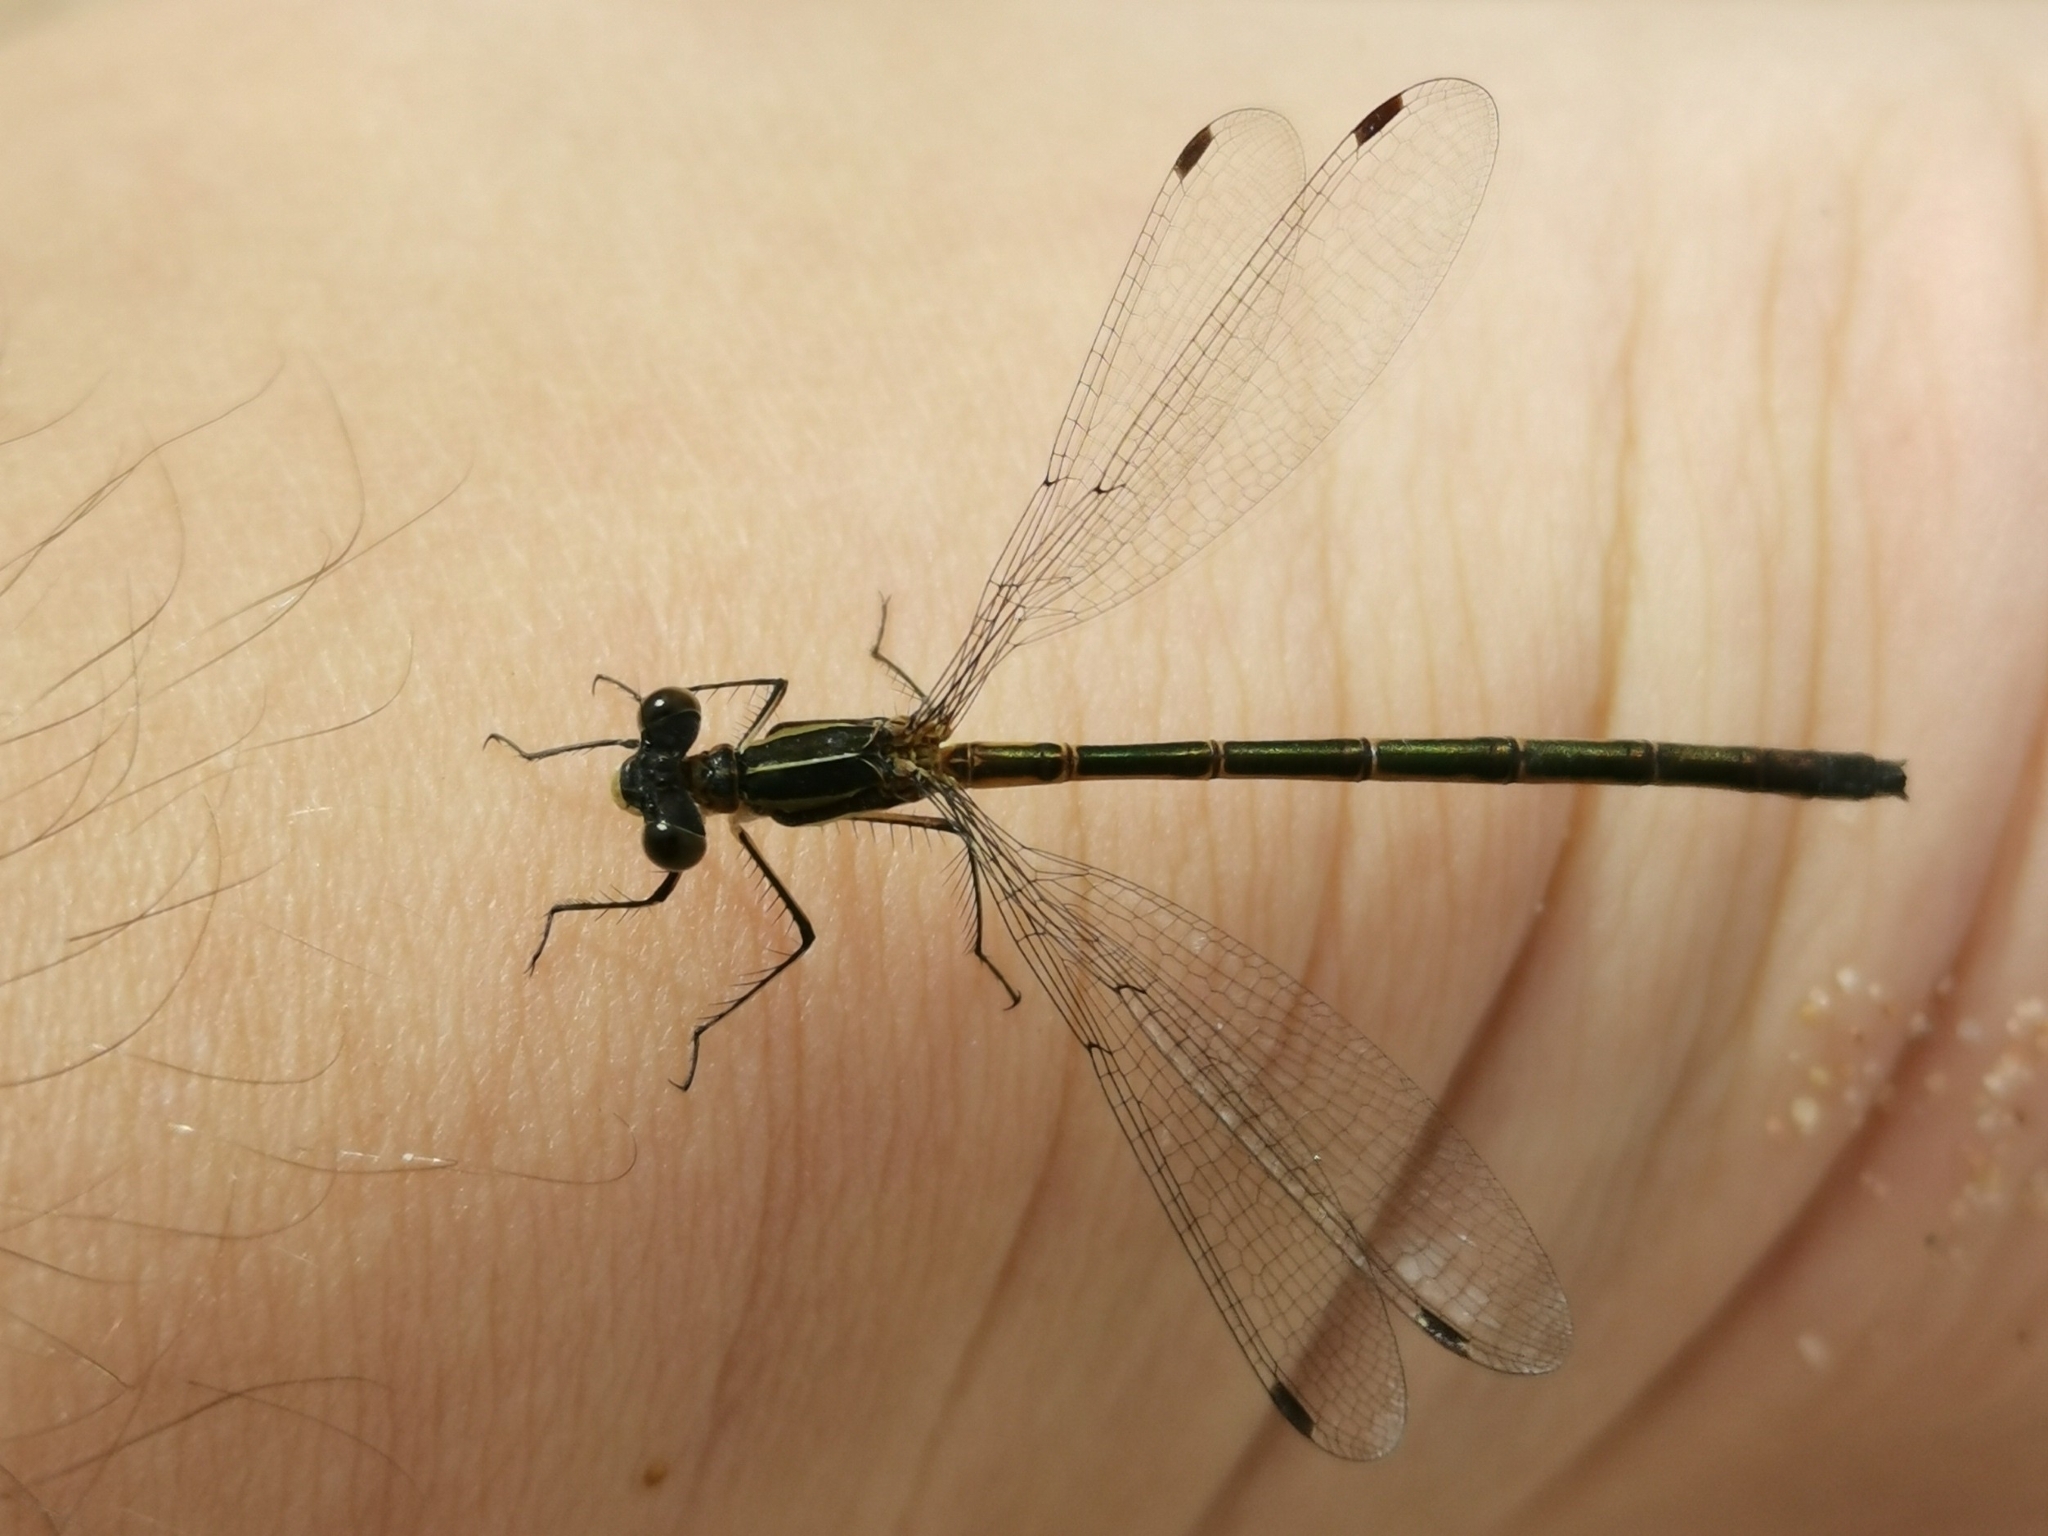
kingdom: Animalia
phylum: Arthropoda
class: Insecta
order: Odonata
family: Lestidae
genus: Lestes
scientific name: Lestes dryas
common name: Scarce emerald damselfly
